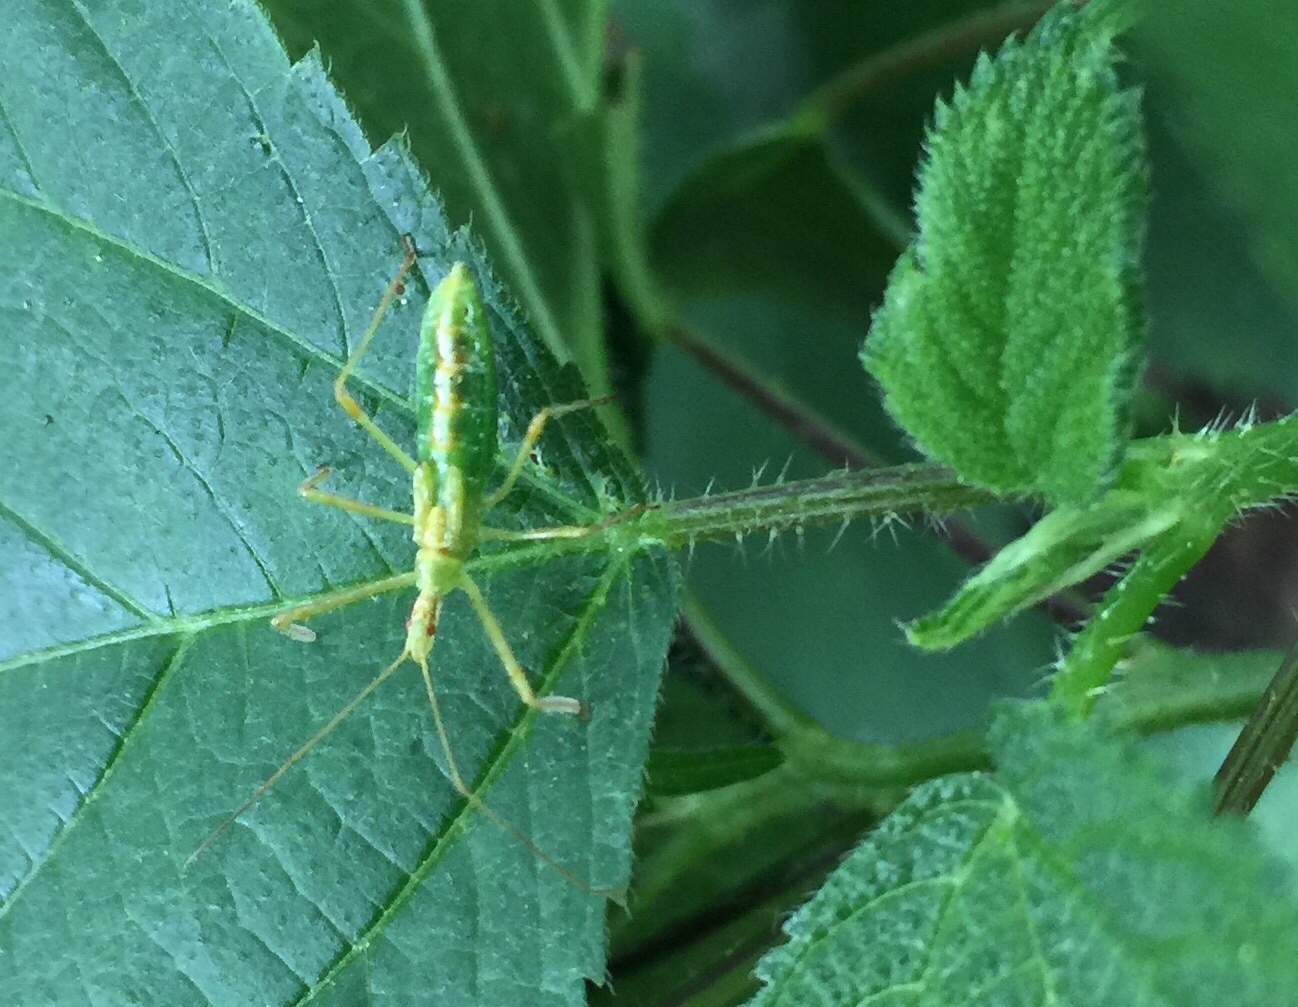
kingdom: Animalia
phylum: Arthropoda
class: Insecta
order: Hemiptera
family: Reduviidae
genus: Zelus
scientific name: Zelus luridus
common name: Pale green assassin bug
